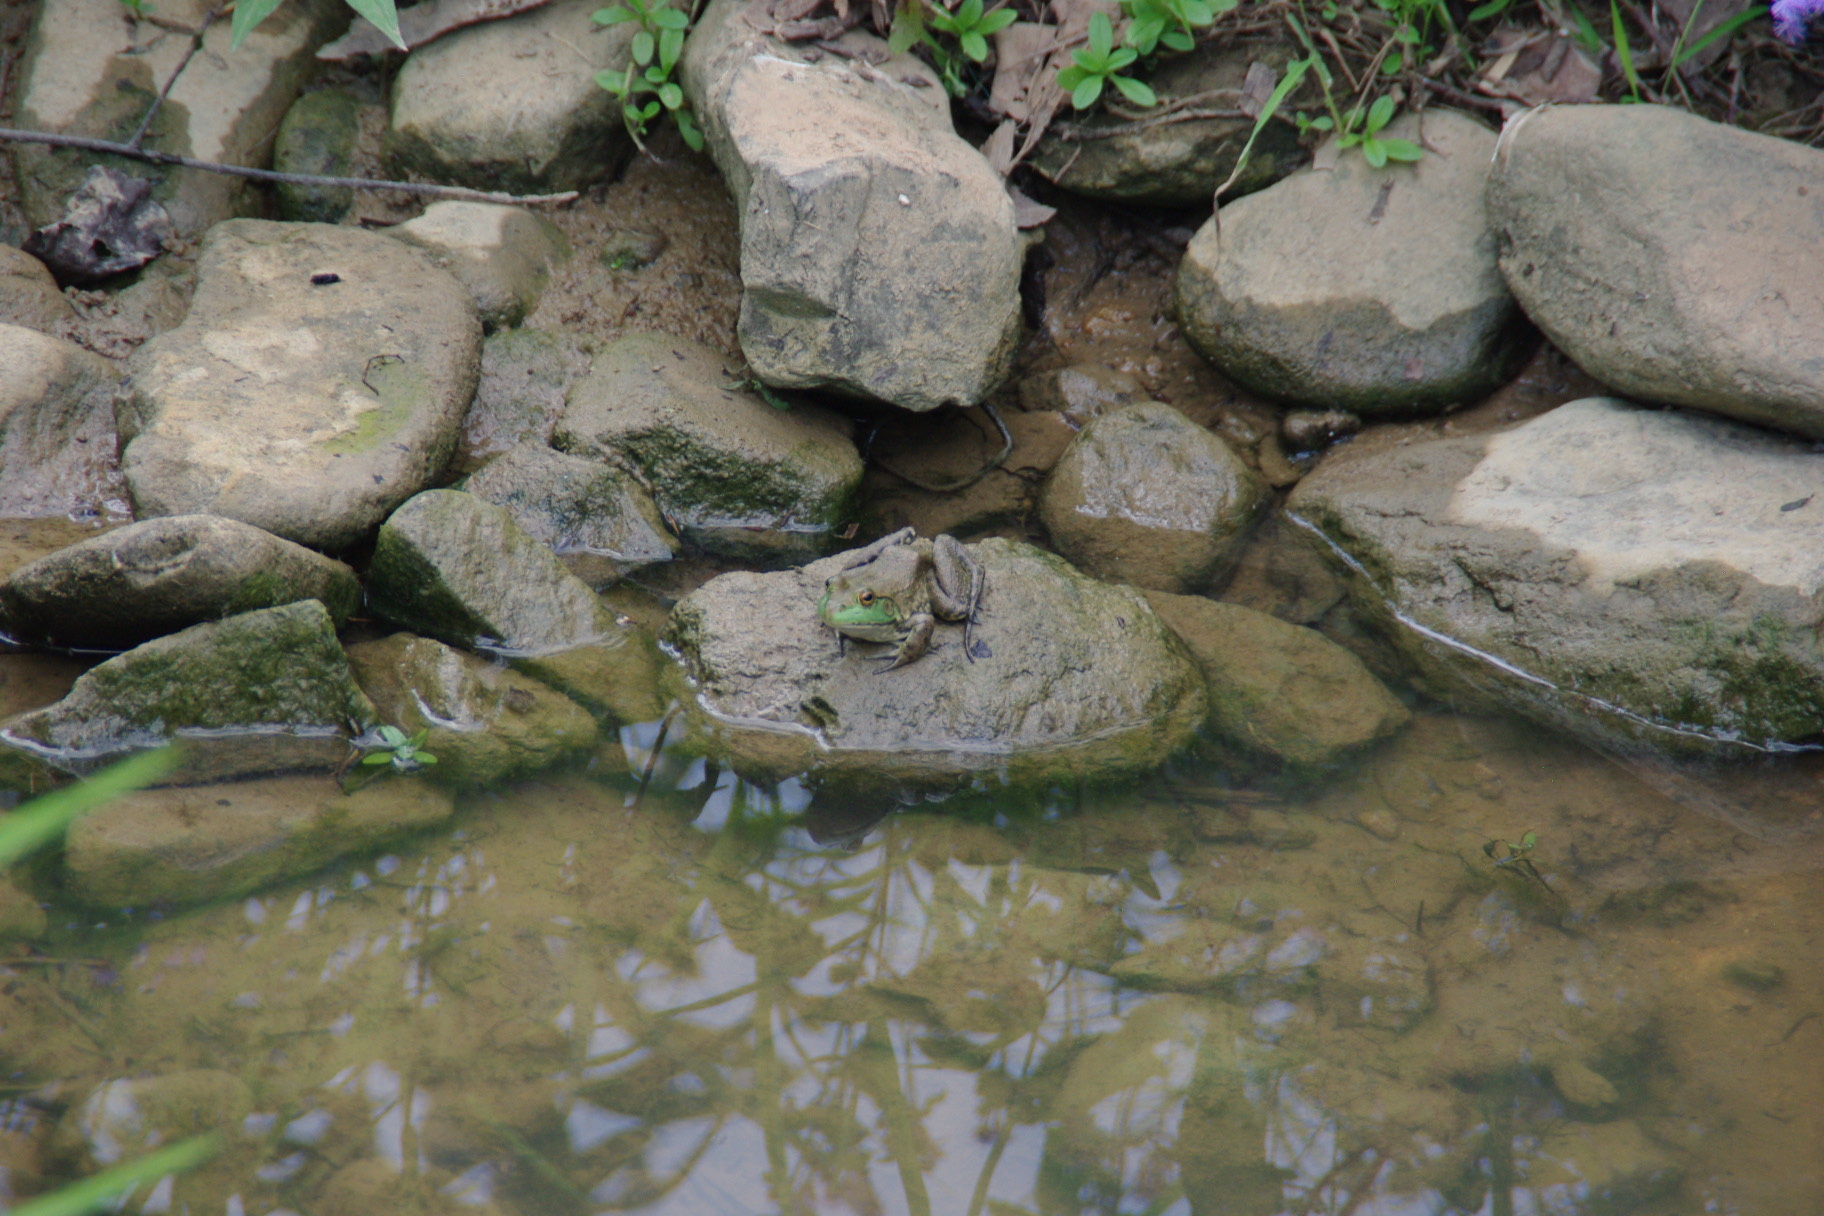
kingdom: Animalia
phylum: Chordata
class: Amphibia
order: Anura
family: Ranidae
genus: Lithobates
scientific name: Lithobates catesbeianus
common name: American bullfrog
